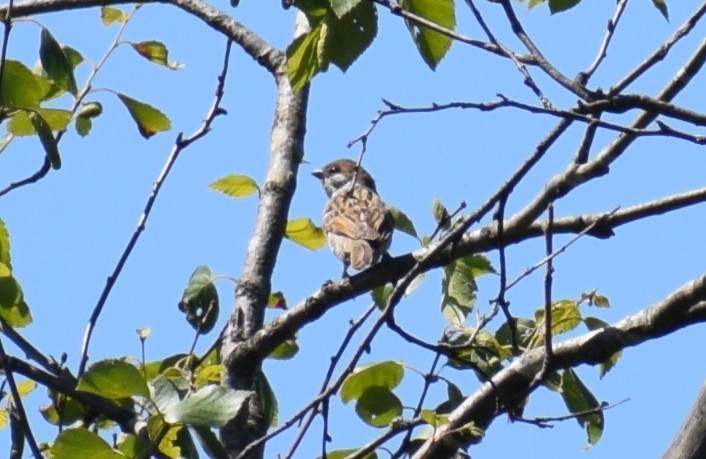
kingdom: Animalia
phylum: Chordata
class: Aves
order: Passeriformes
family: Passeridae
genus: Passer
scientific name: Passer montanus
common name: Eurasian tree sparrow
